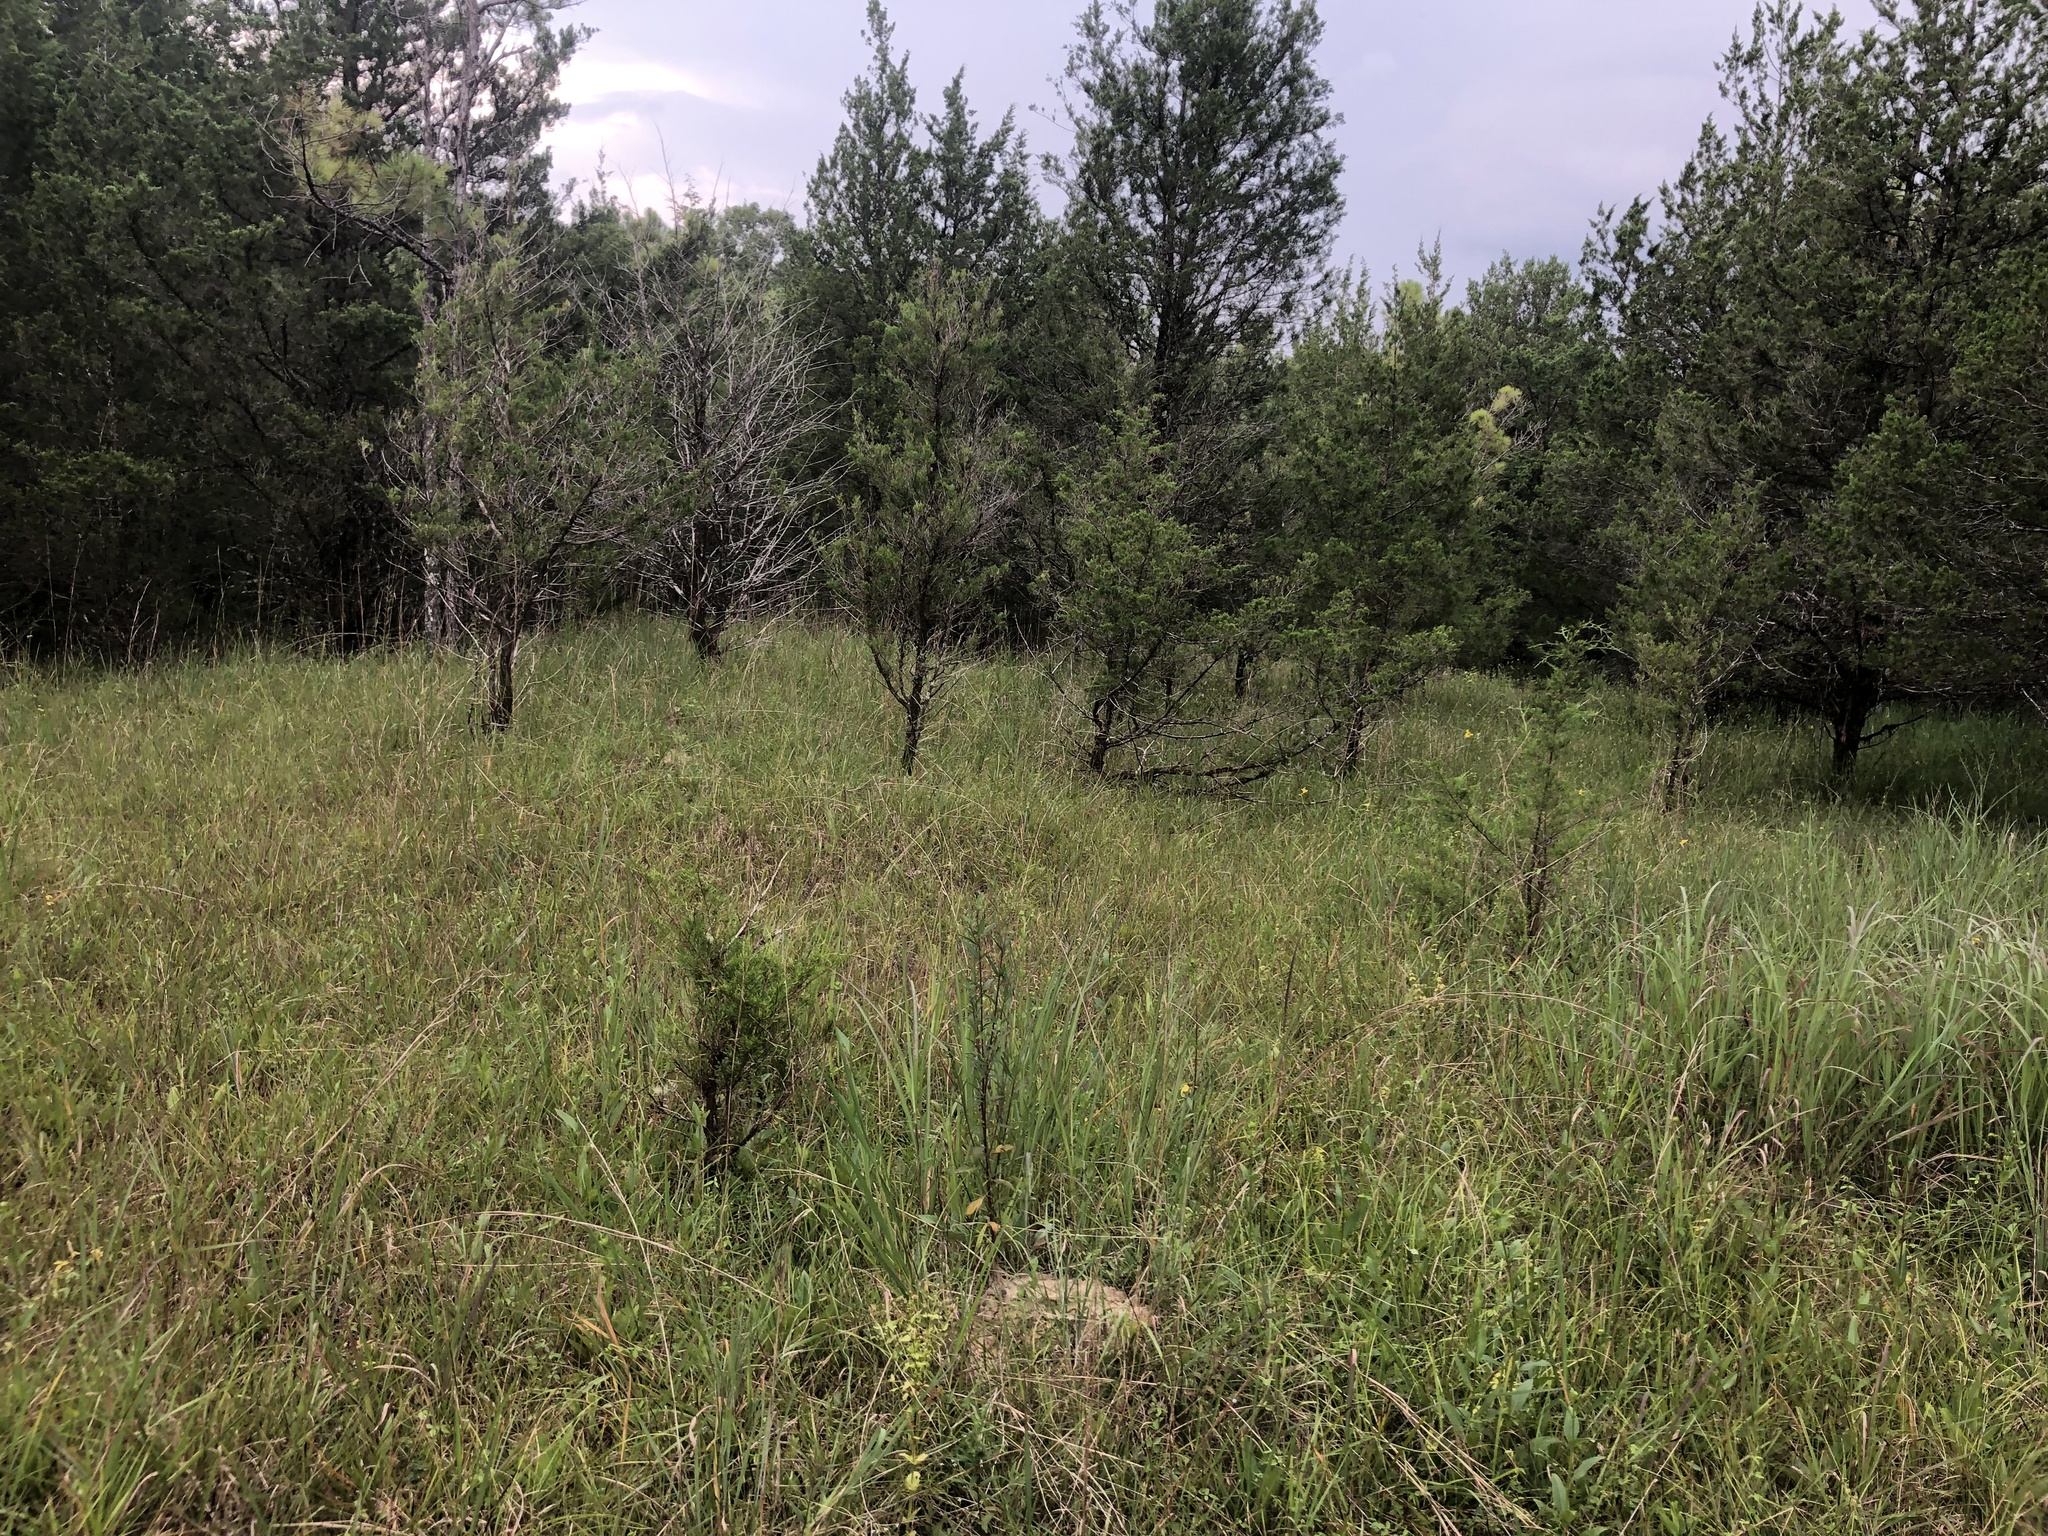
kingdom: Plantae
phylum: Tracheophyta
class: Liliopsida
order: Poales
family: Poaceae
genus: Andropogon
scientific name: Andropogon gerardi
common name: Big bluestem
